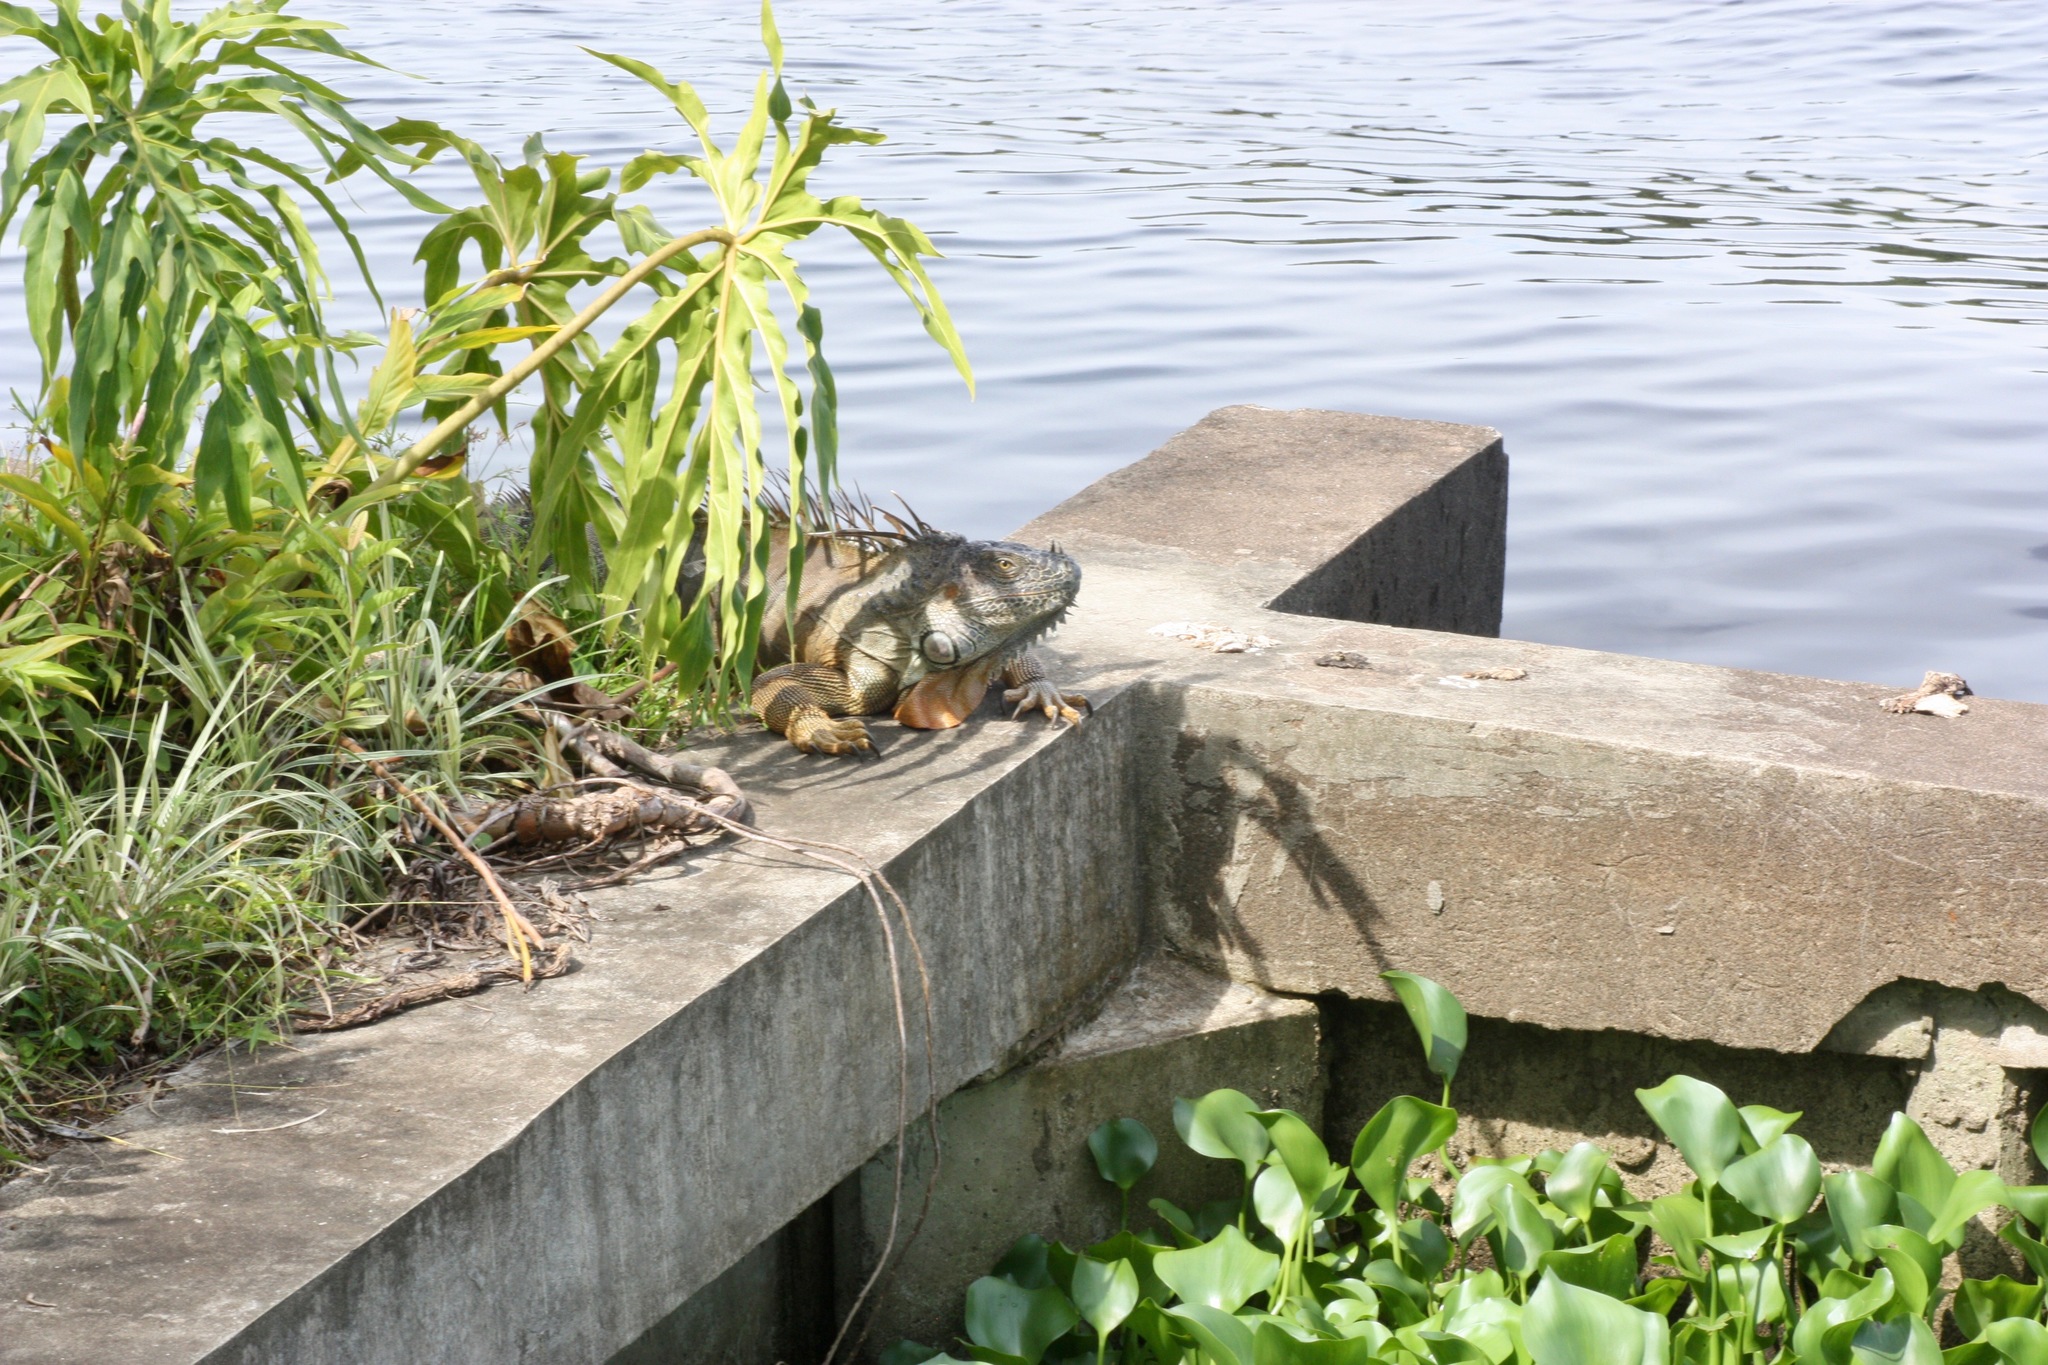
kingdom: Animalia
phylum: Chordata
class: Squamata
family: Iguanidae
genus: Iguana
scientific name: Iguana iguana
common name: Green iguana
